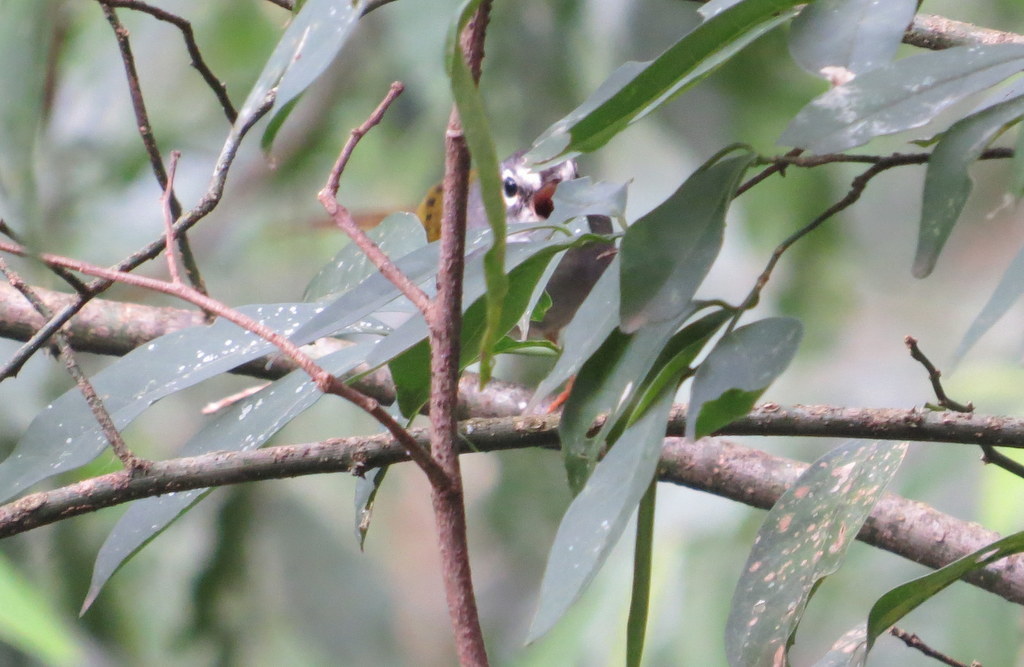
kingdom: Animalia
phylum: Chordata
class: Aves
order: Passeriformes
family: Parulidae
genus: Myiothlypis
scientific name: Myiothlypis leucoblephara
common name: White-rimmed warbler
